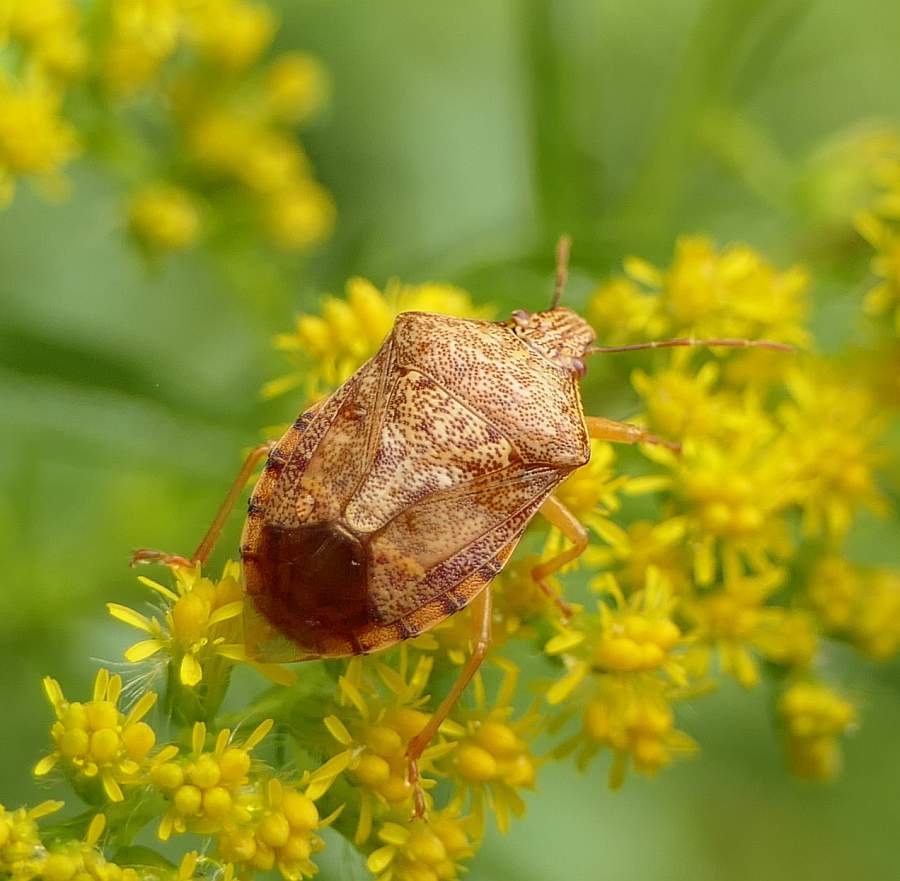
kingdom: Animalia
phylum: Arthropoda
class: Insecta
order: Hemiptera
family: Pentatomidae
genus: Podisus
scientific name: Podisus placidus
